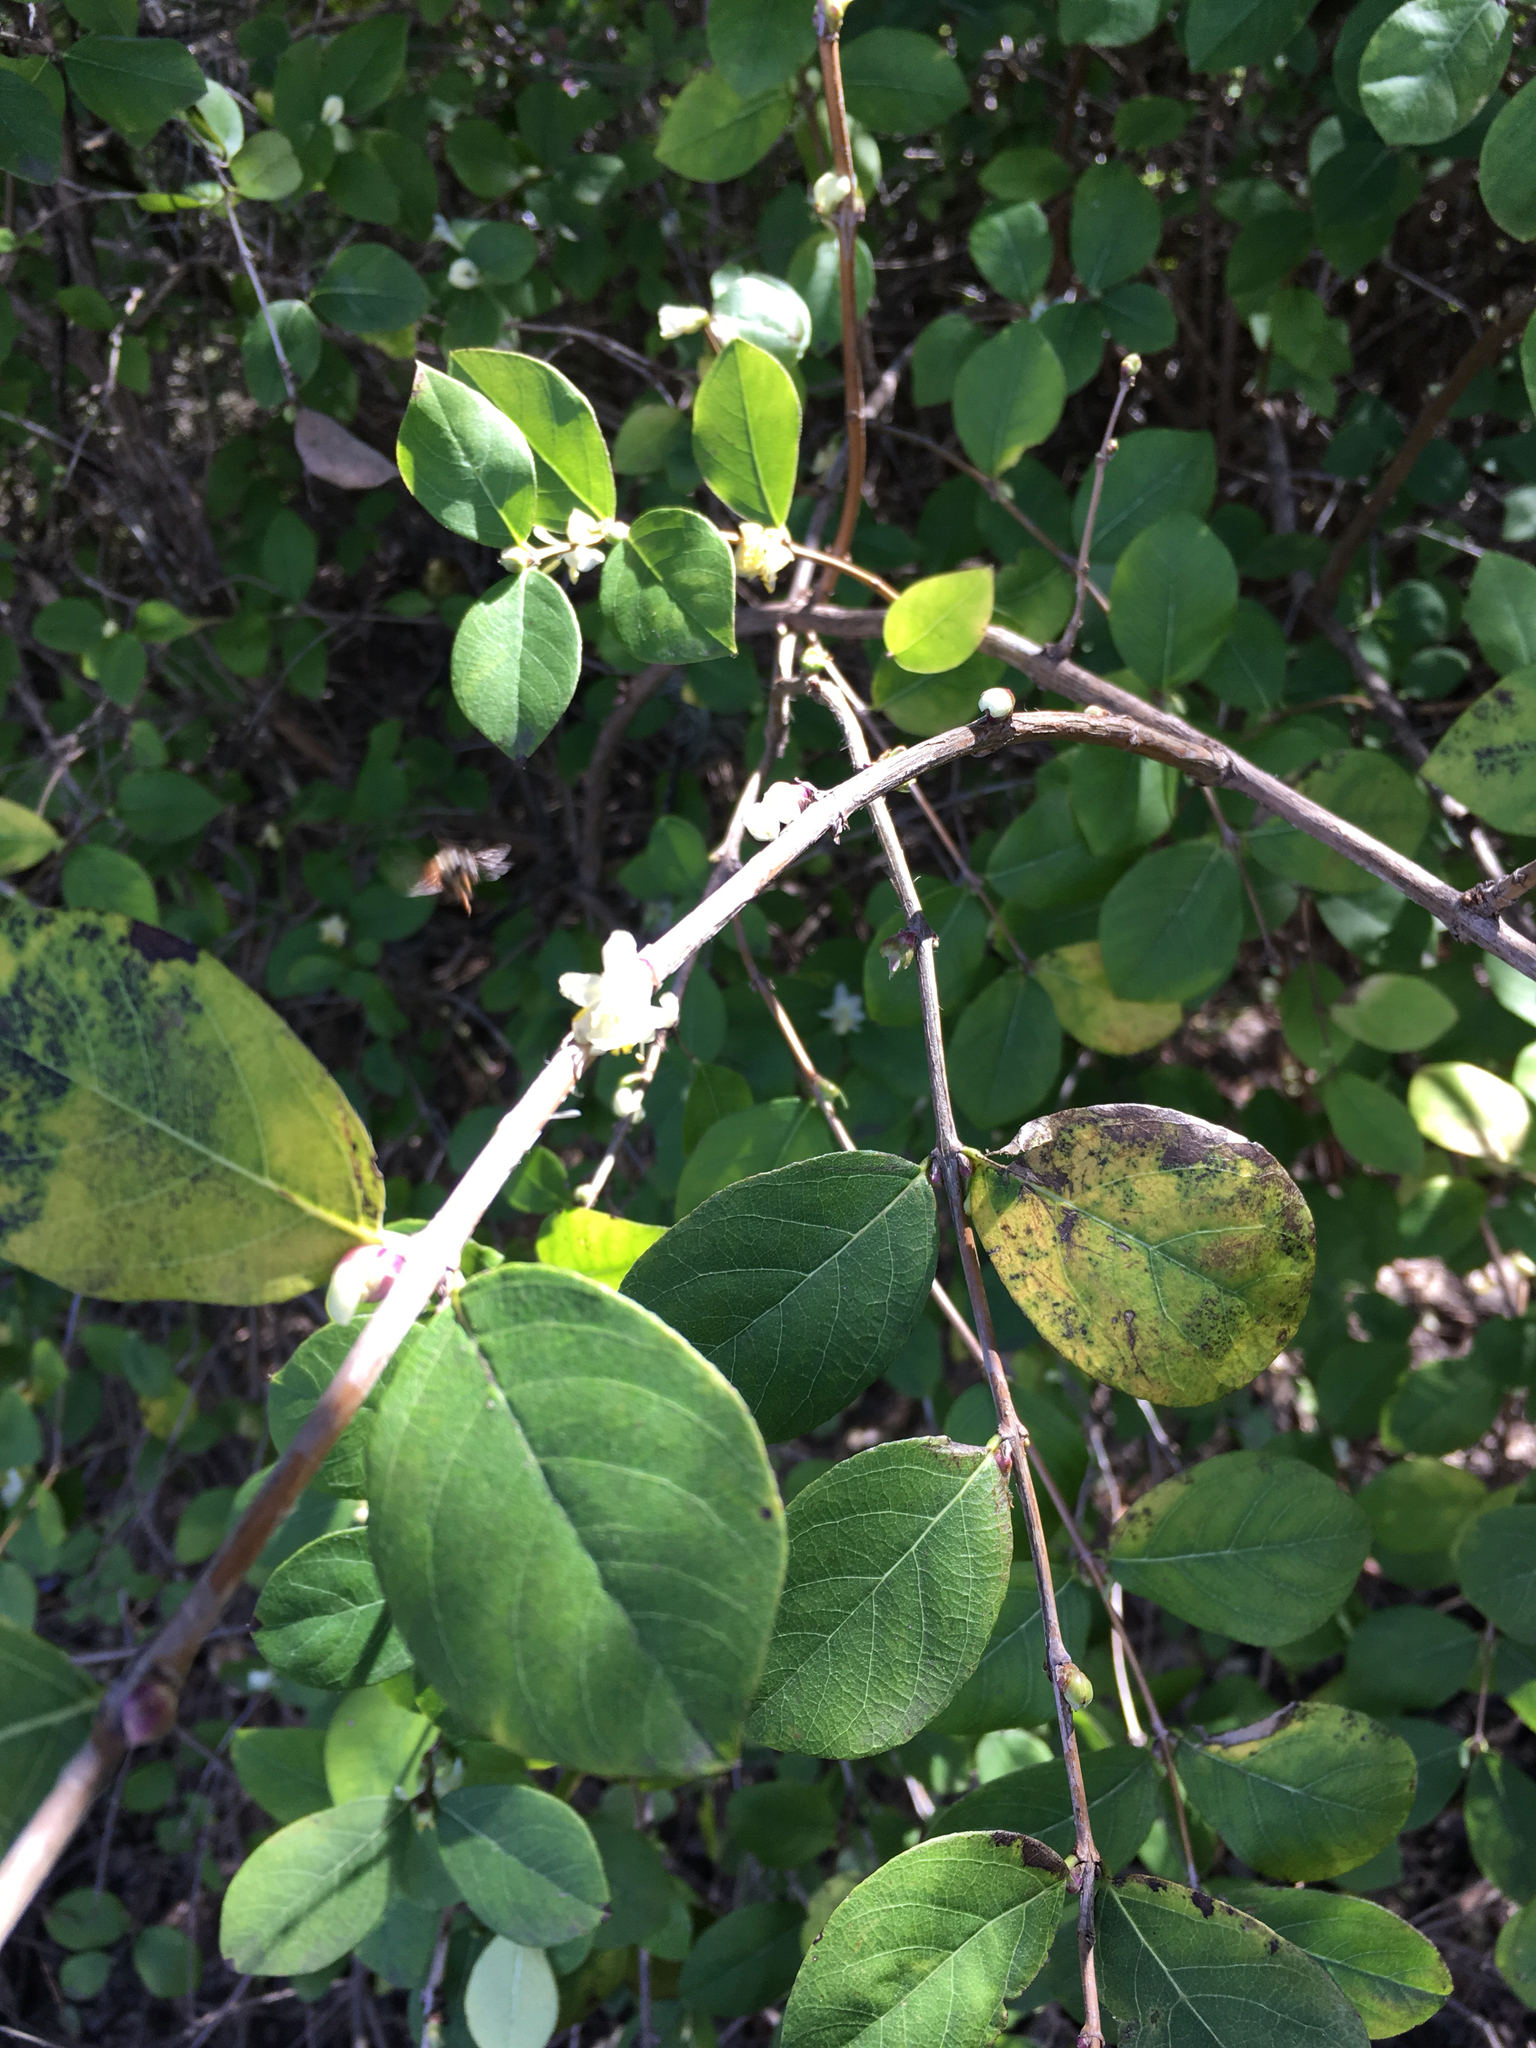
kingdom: Plantae
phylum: Tracheophyta
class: Magnoliopsida
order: Dipsacales
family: Caprifoliaceae
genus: Lonicera
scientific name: Lonicera fragrantissima
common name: Fragrant honeysuckle
